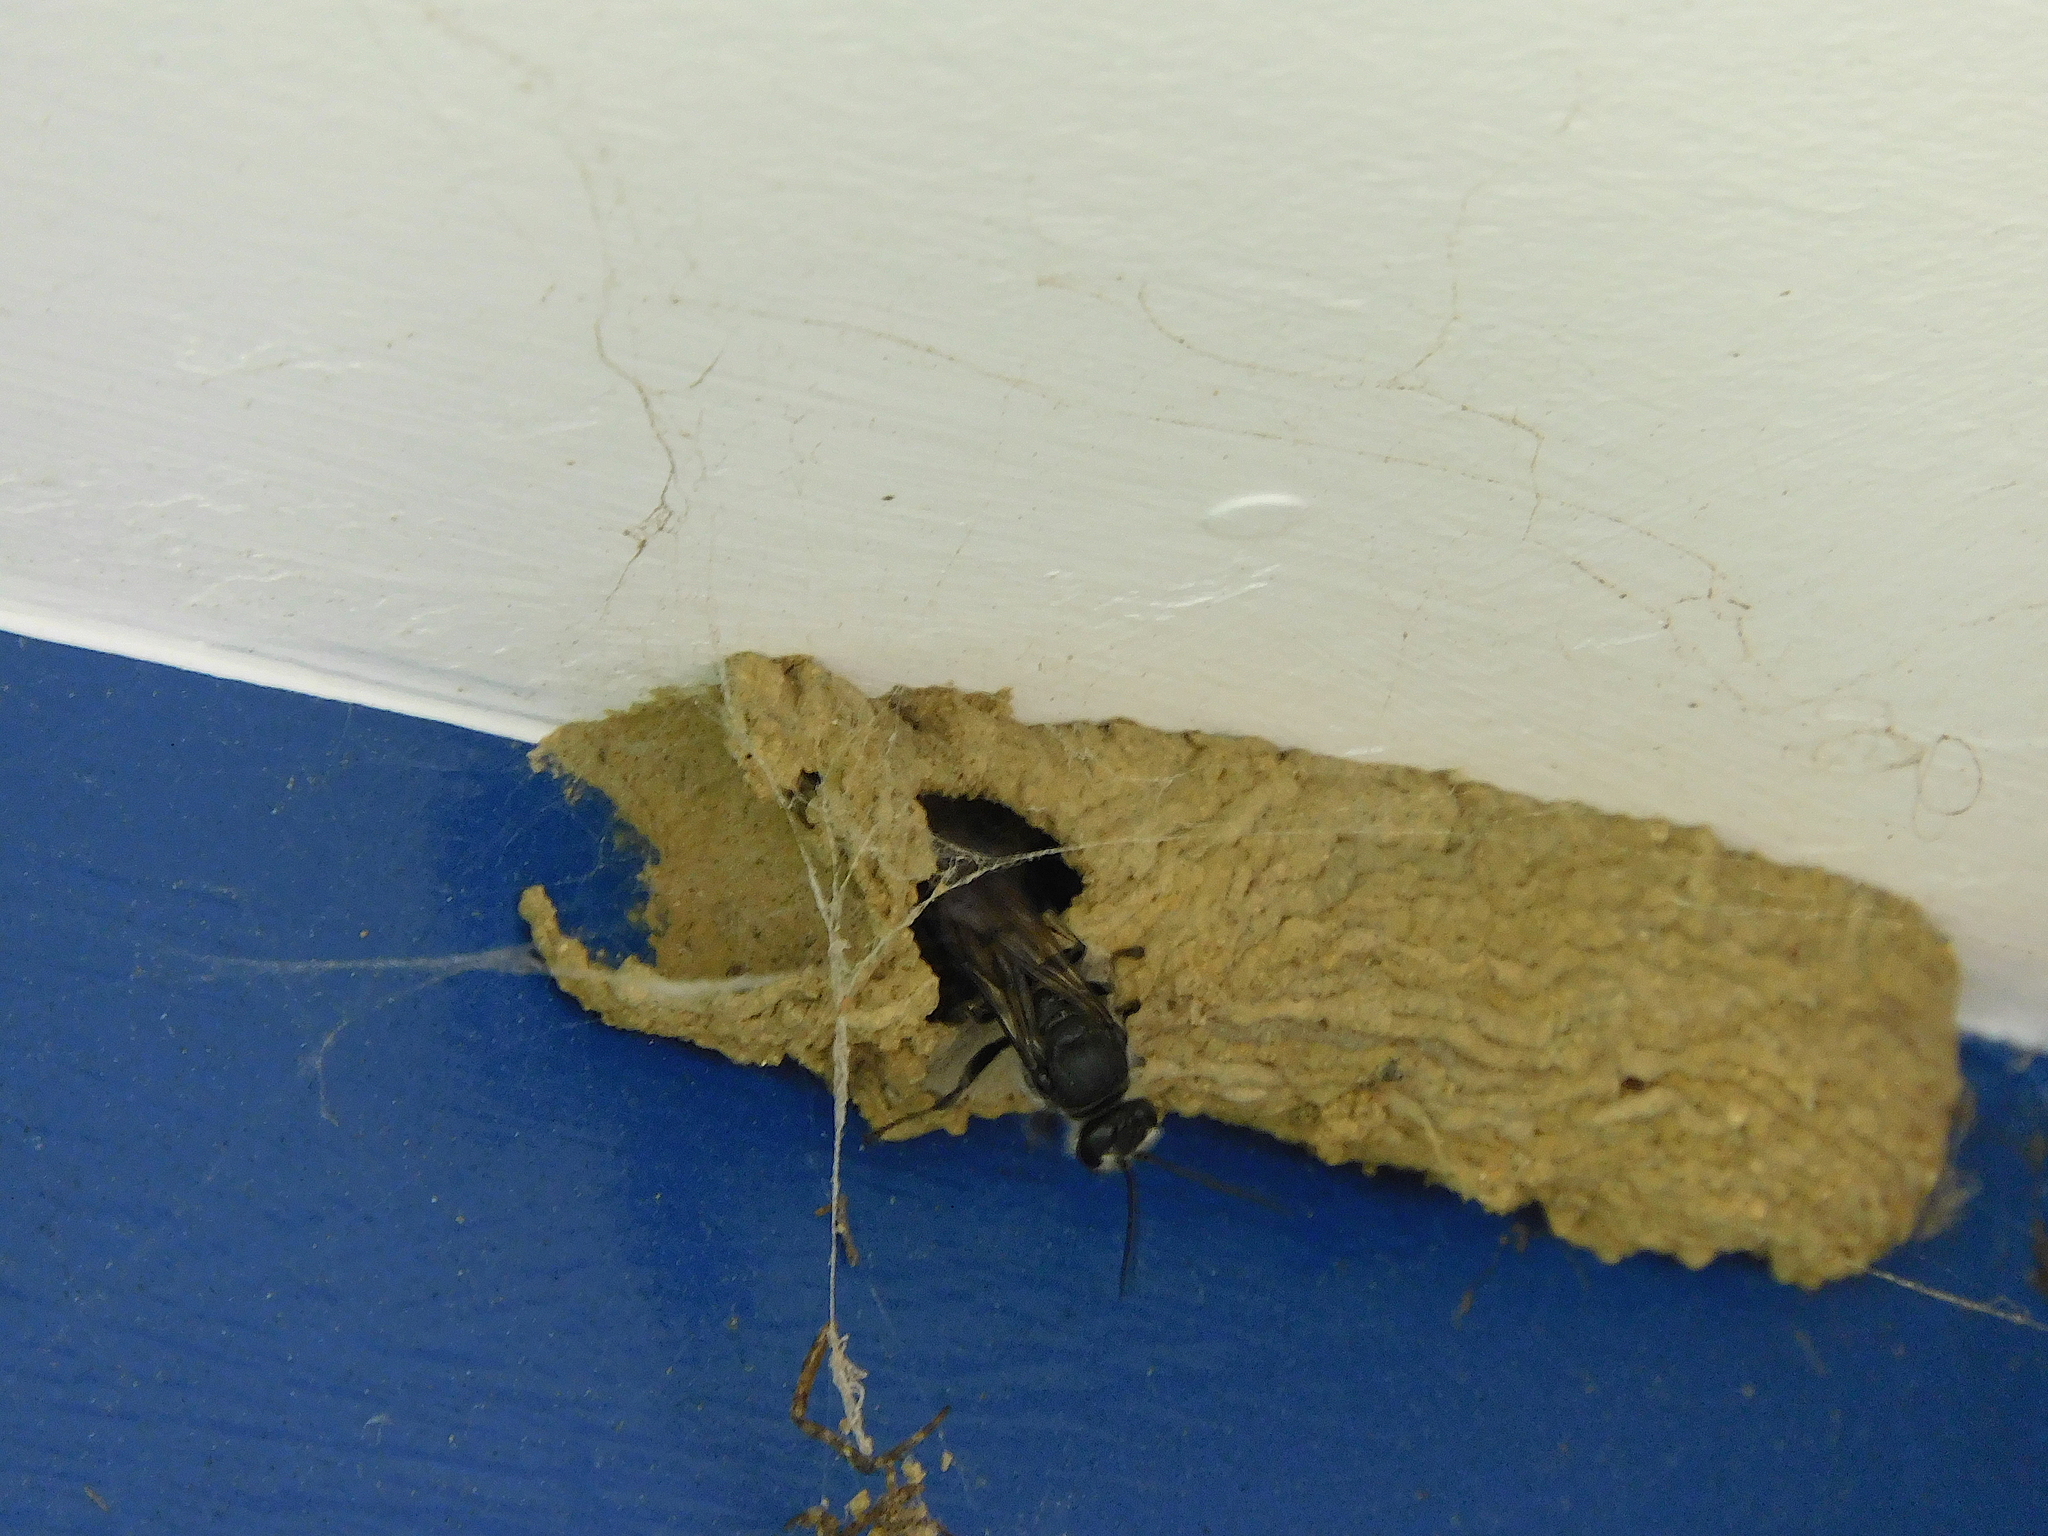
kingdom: Animalia
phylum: Arthropoda
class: Insecta
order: Hymenoptera
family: Crabronidae
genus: Pison
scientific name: Pison spinolae
